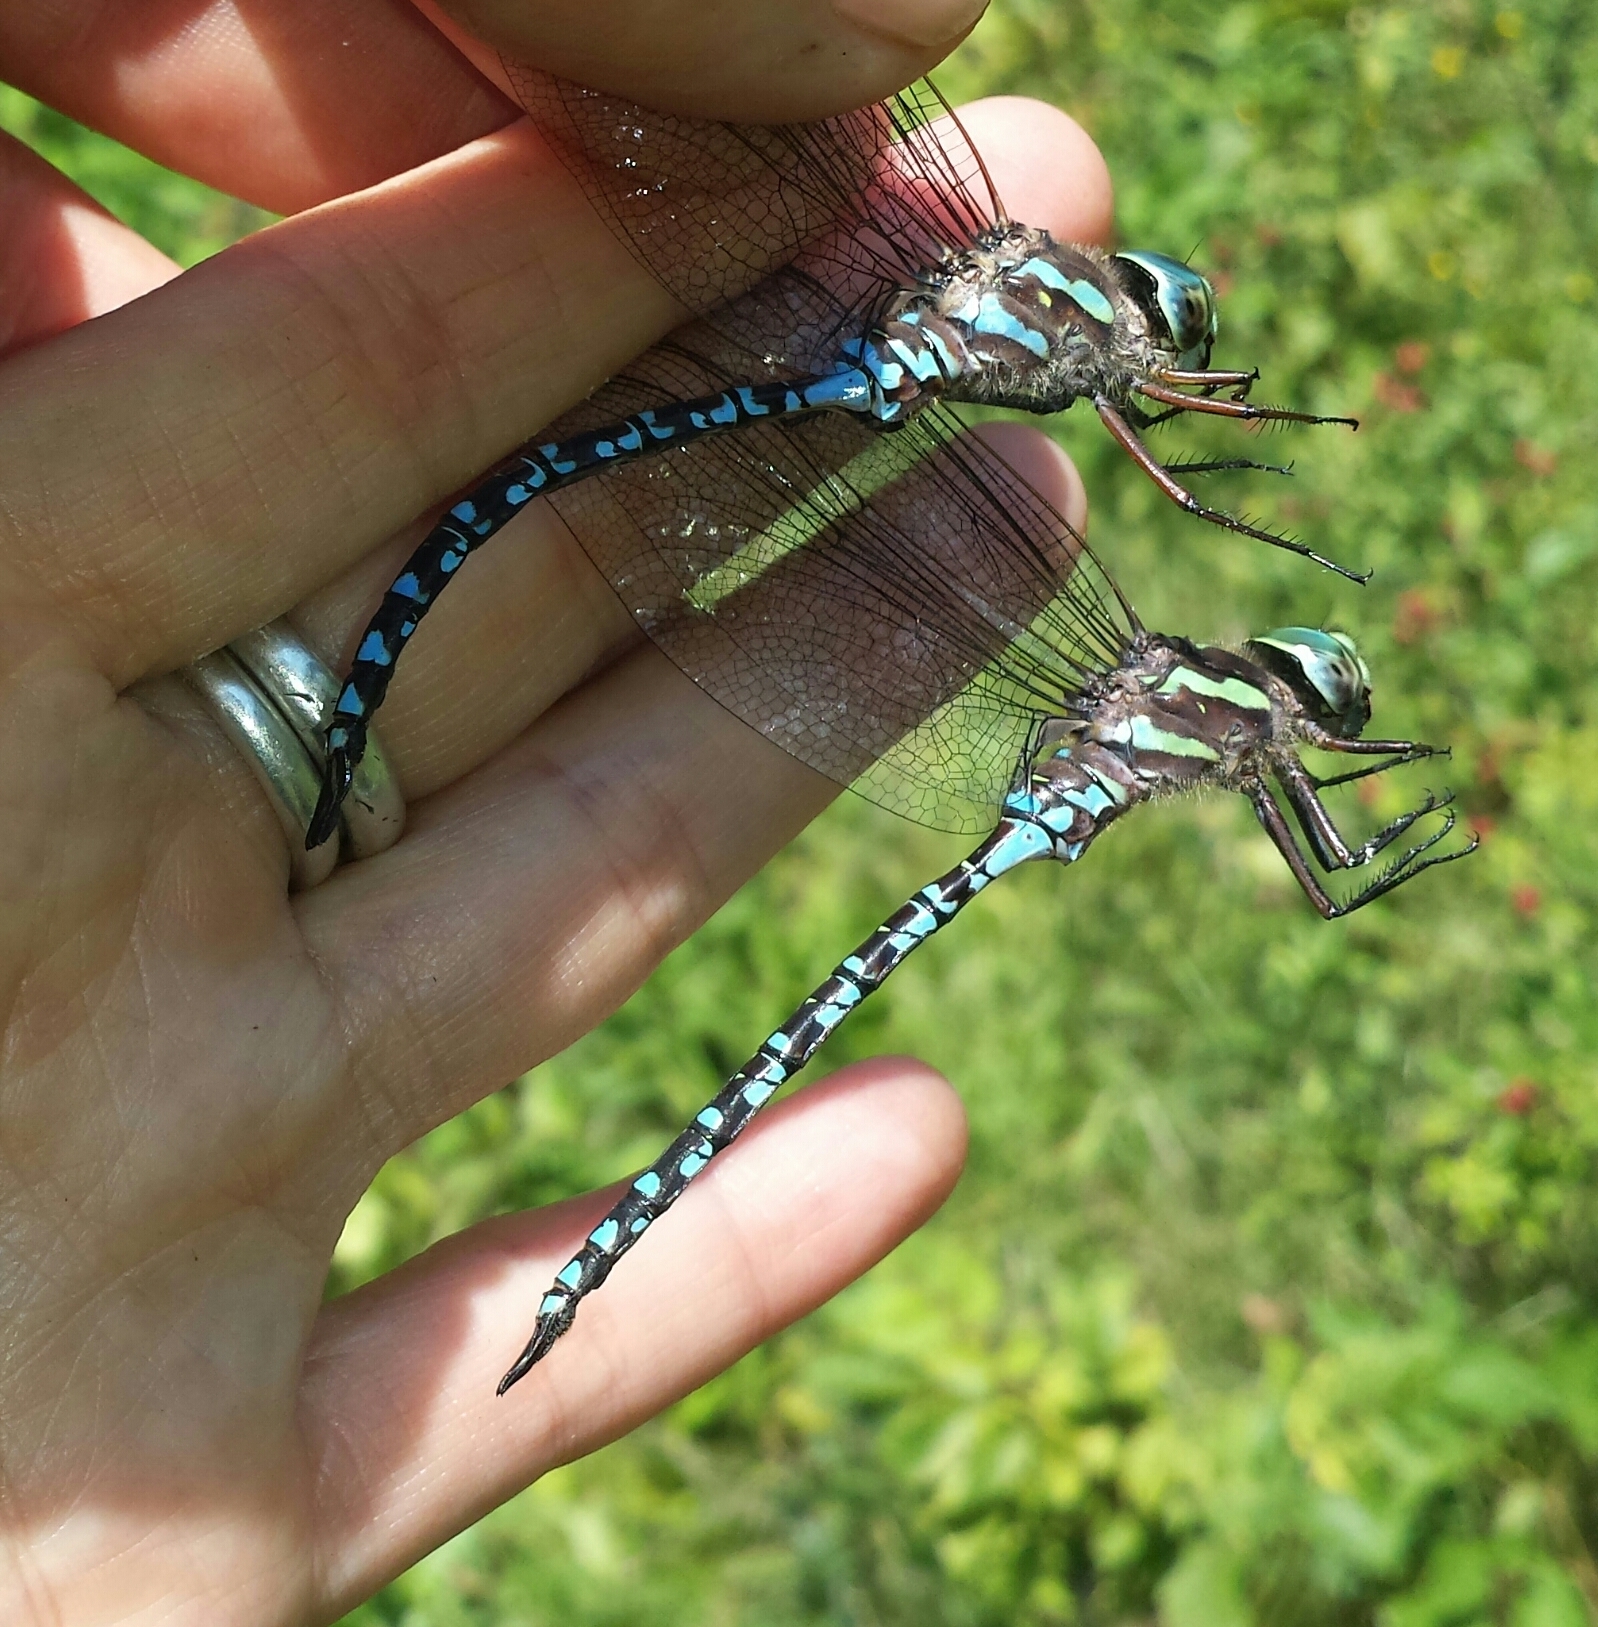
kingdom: Animalia
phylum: Arthropoda
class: Insecta
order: Odonata
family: Aeshnidae
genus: Aeshna
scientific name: Aeshna canadensis
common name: Canada darner
